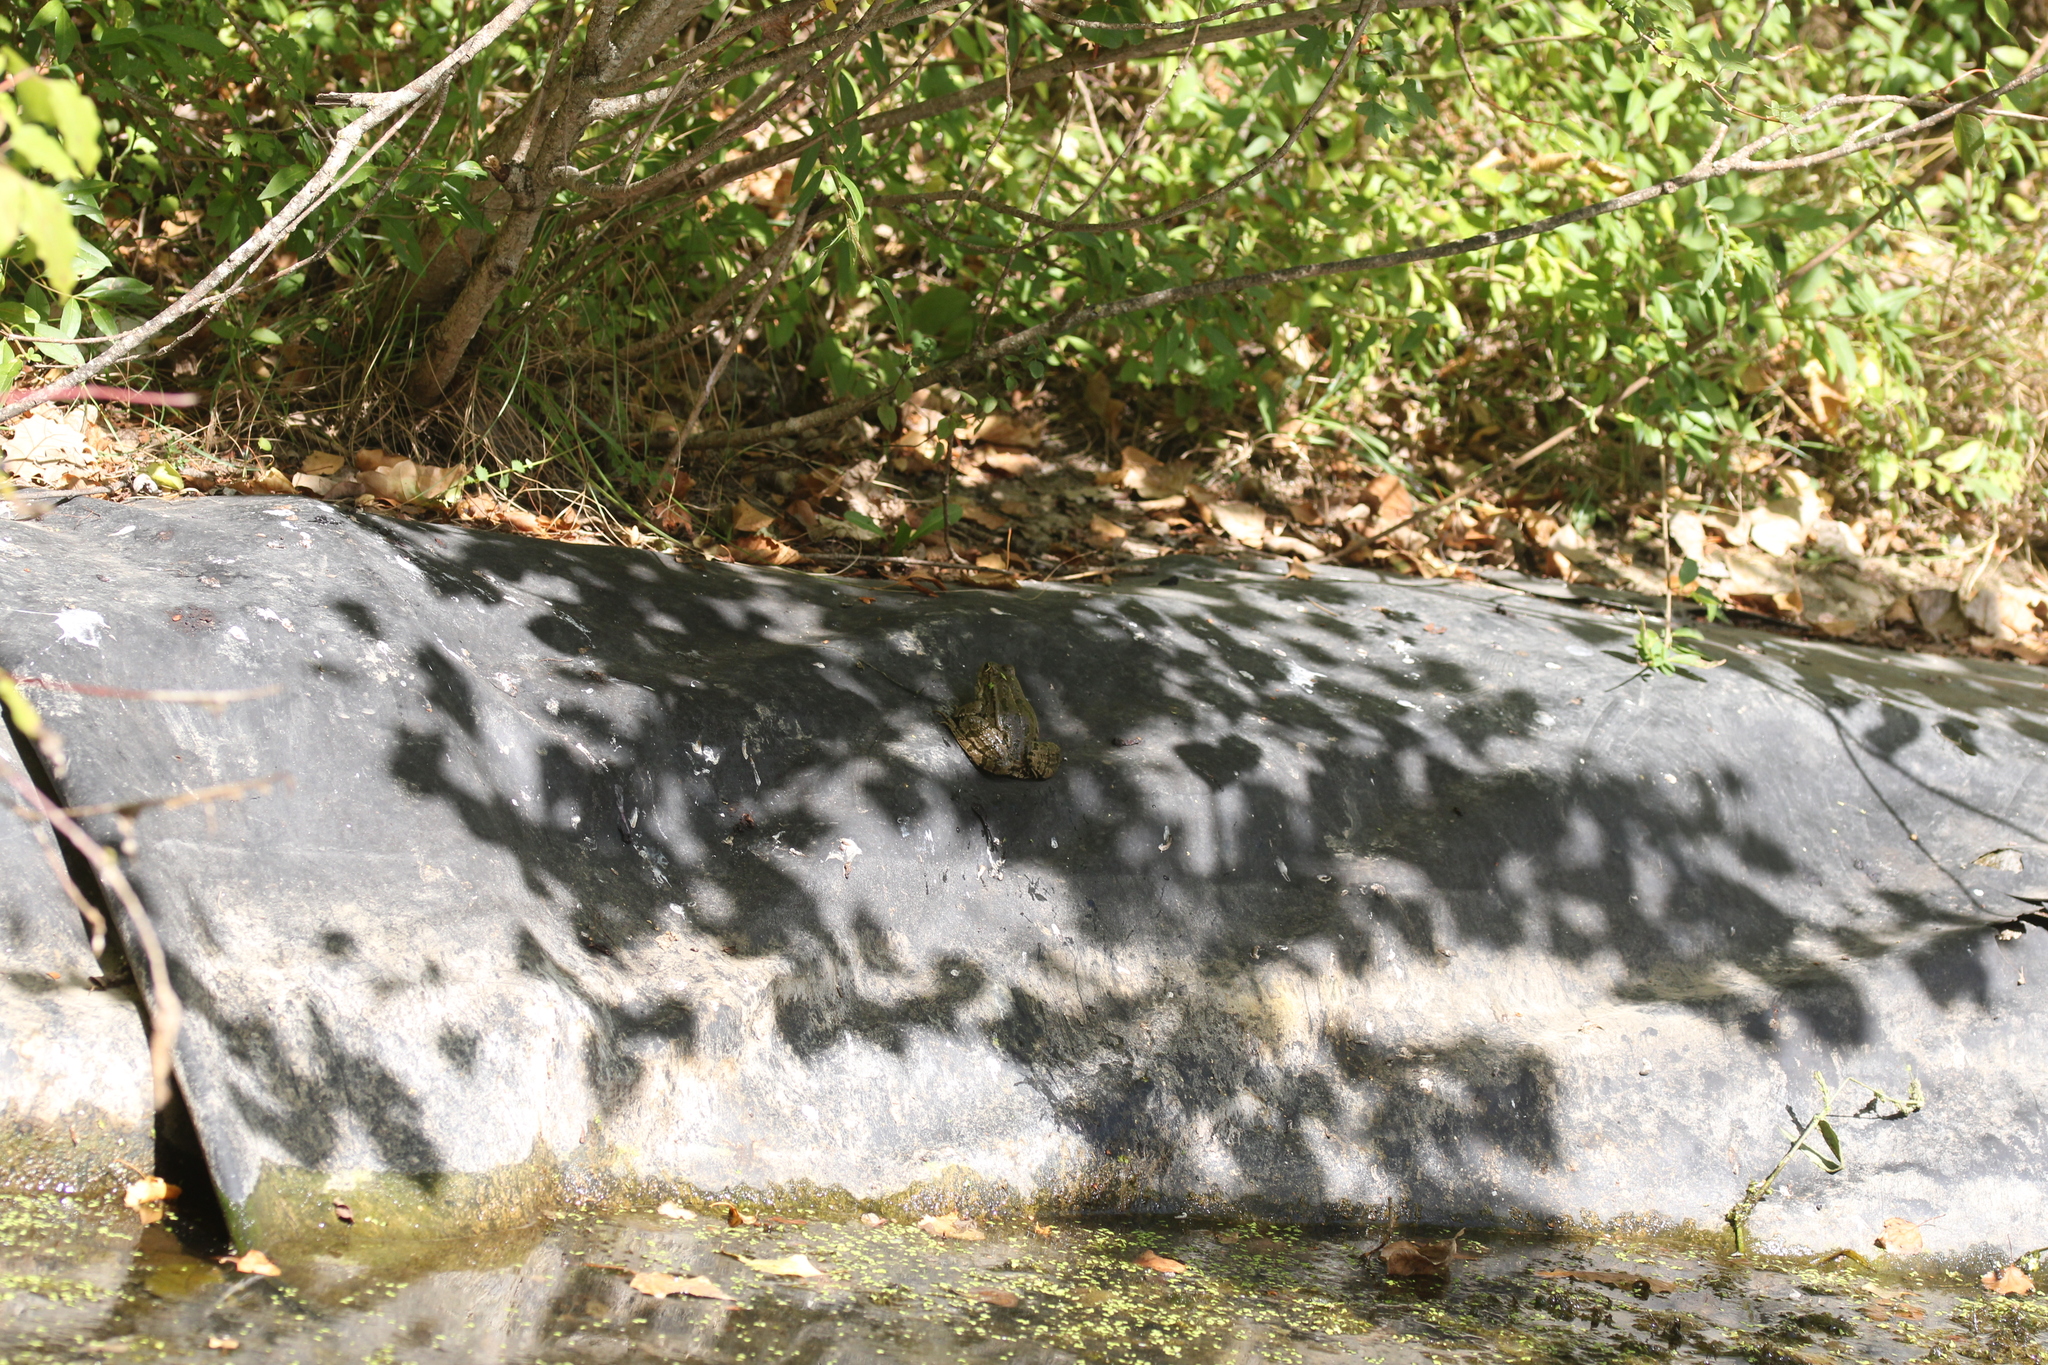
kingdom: Animalia
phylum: Chordata
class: Amphibia
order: Anura
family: Ranidae
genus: Pelophylax
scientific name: Pelophylax
